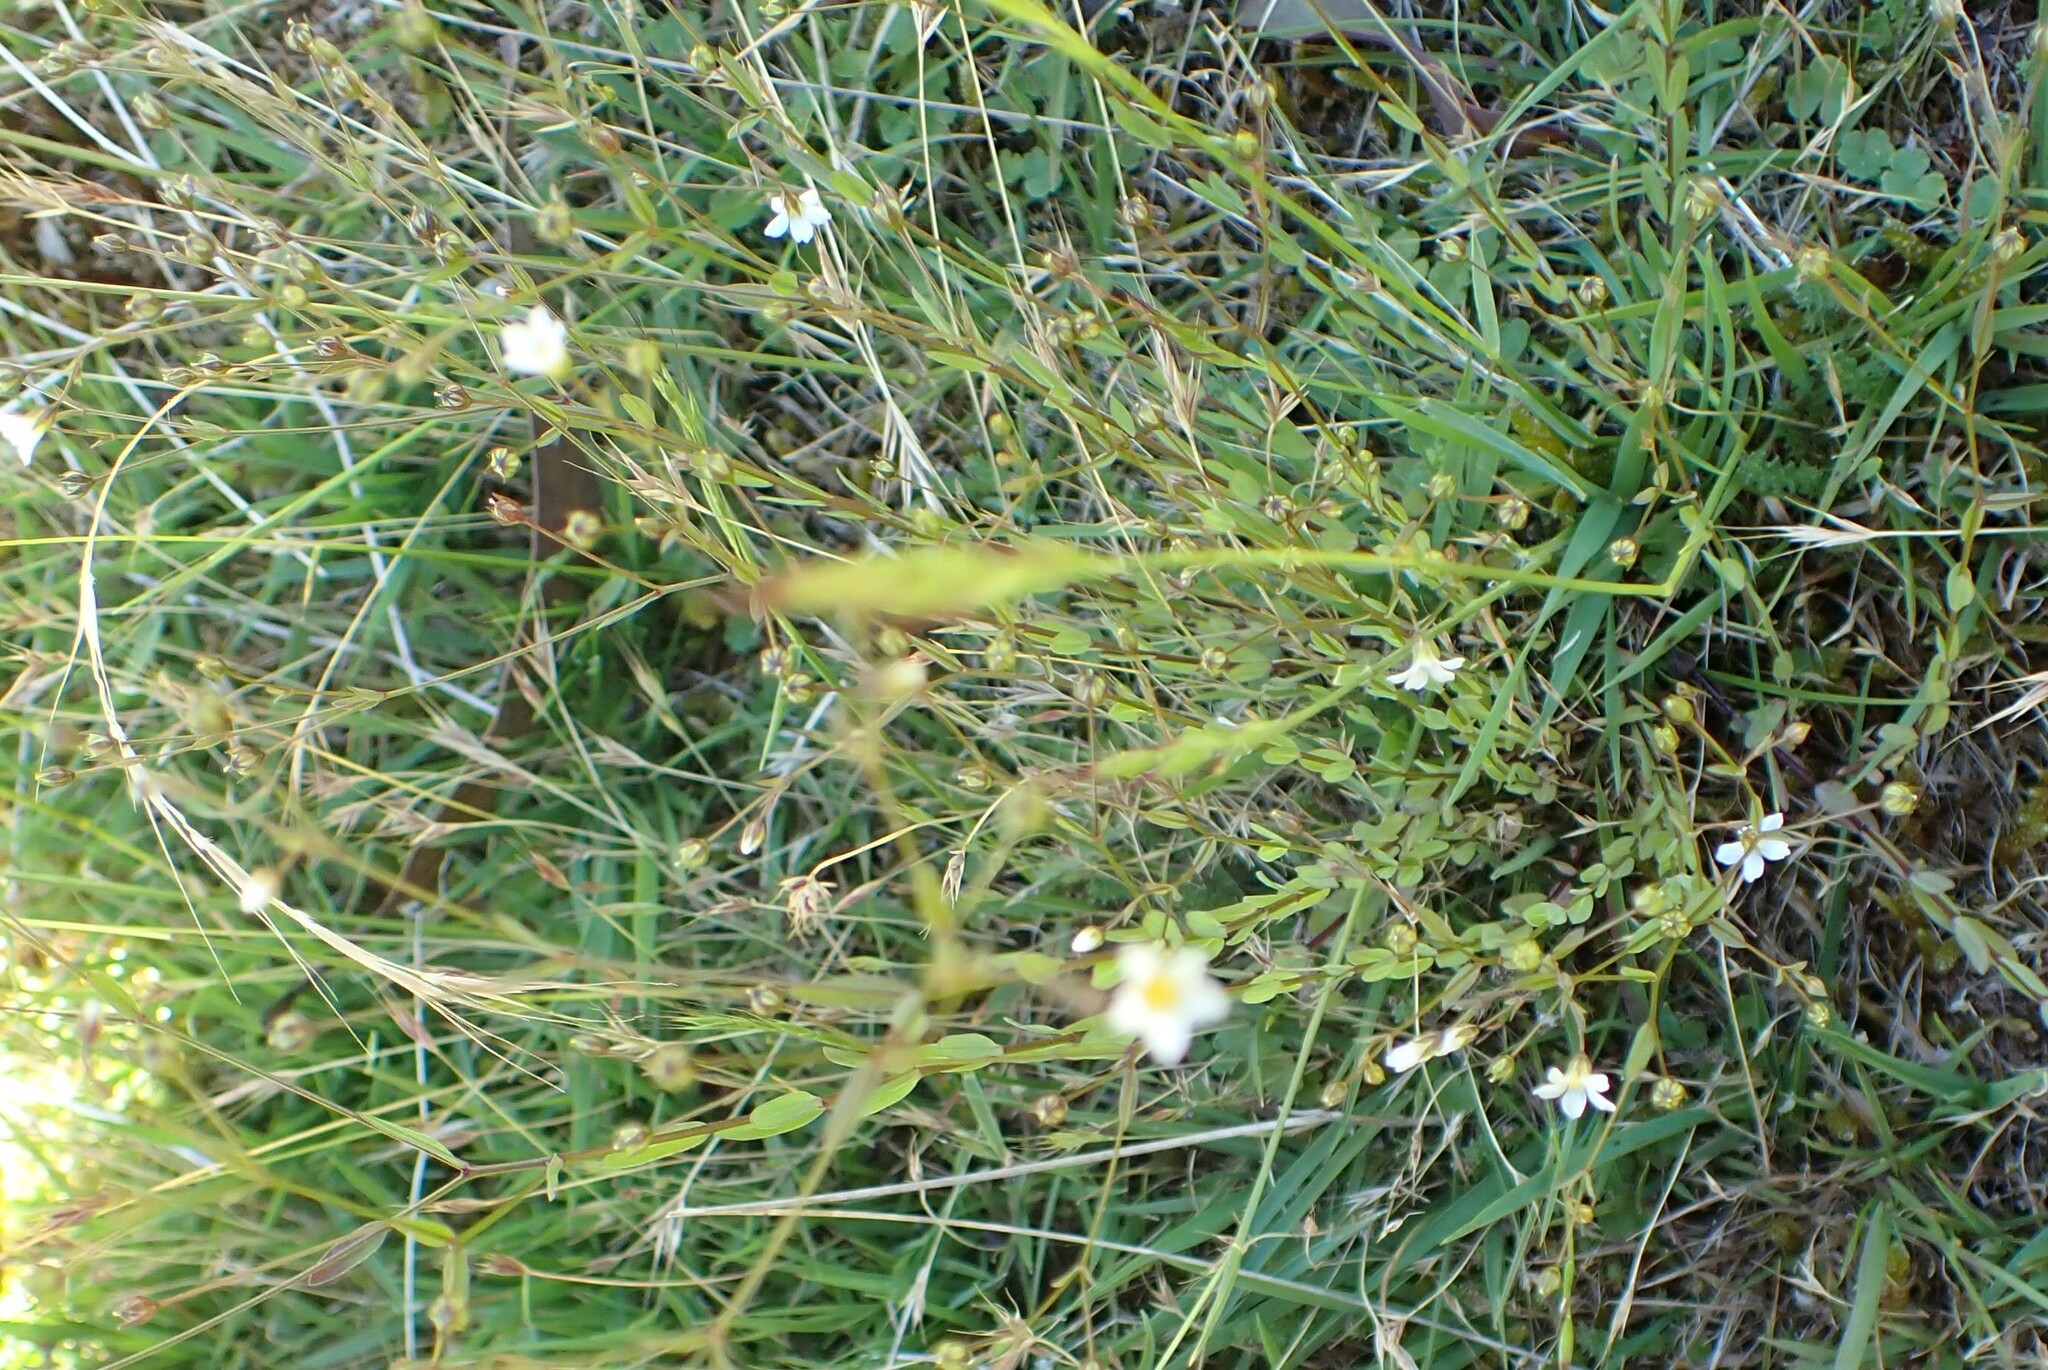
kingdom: Plantae
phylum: Tracheophyta
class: Magnoliopsida
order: Malpighiales
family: Linaceae
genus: Linum
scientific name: Linum catharticum
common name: Fairy flax
